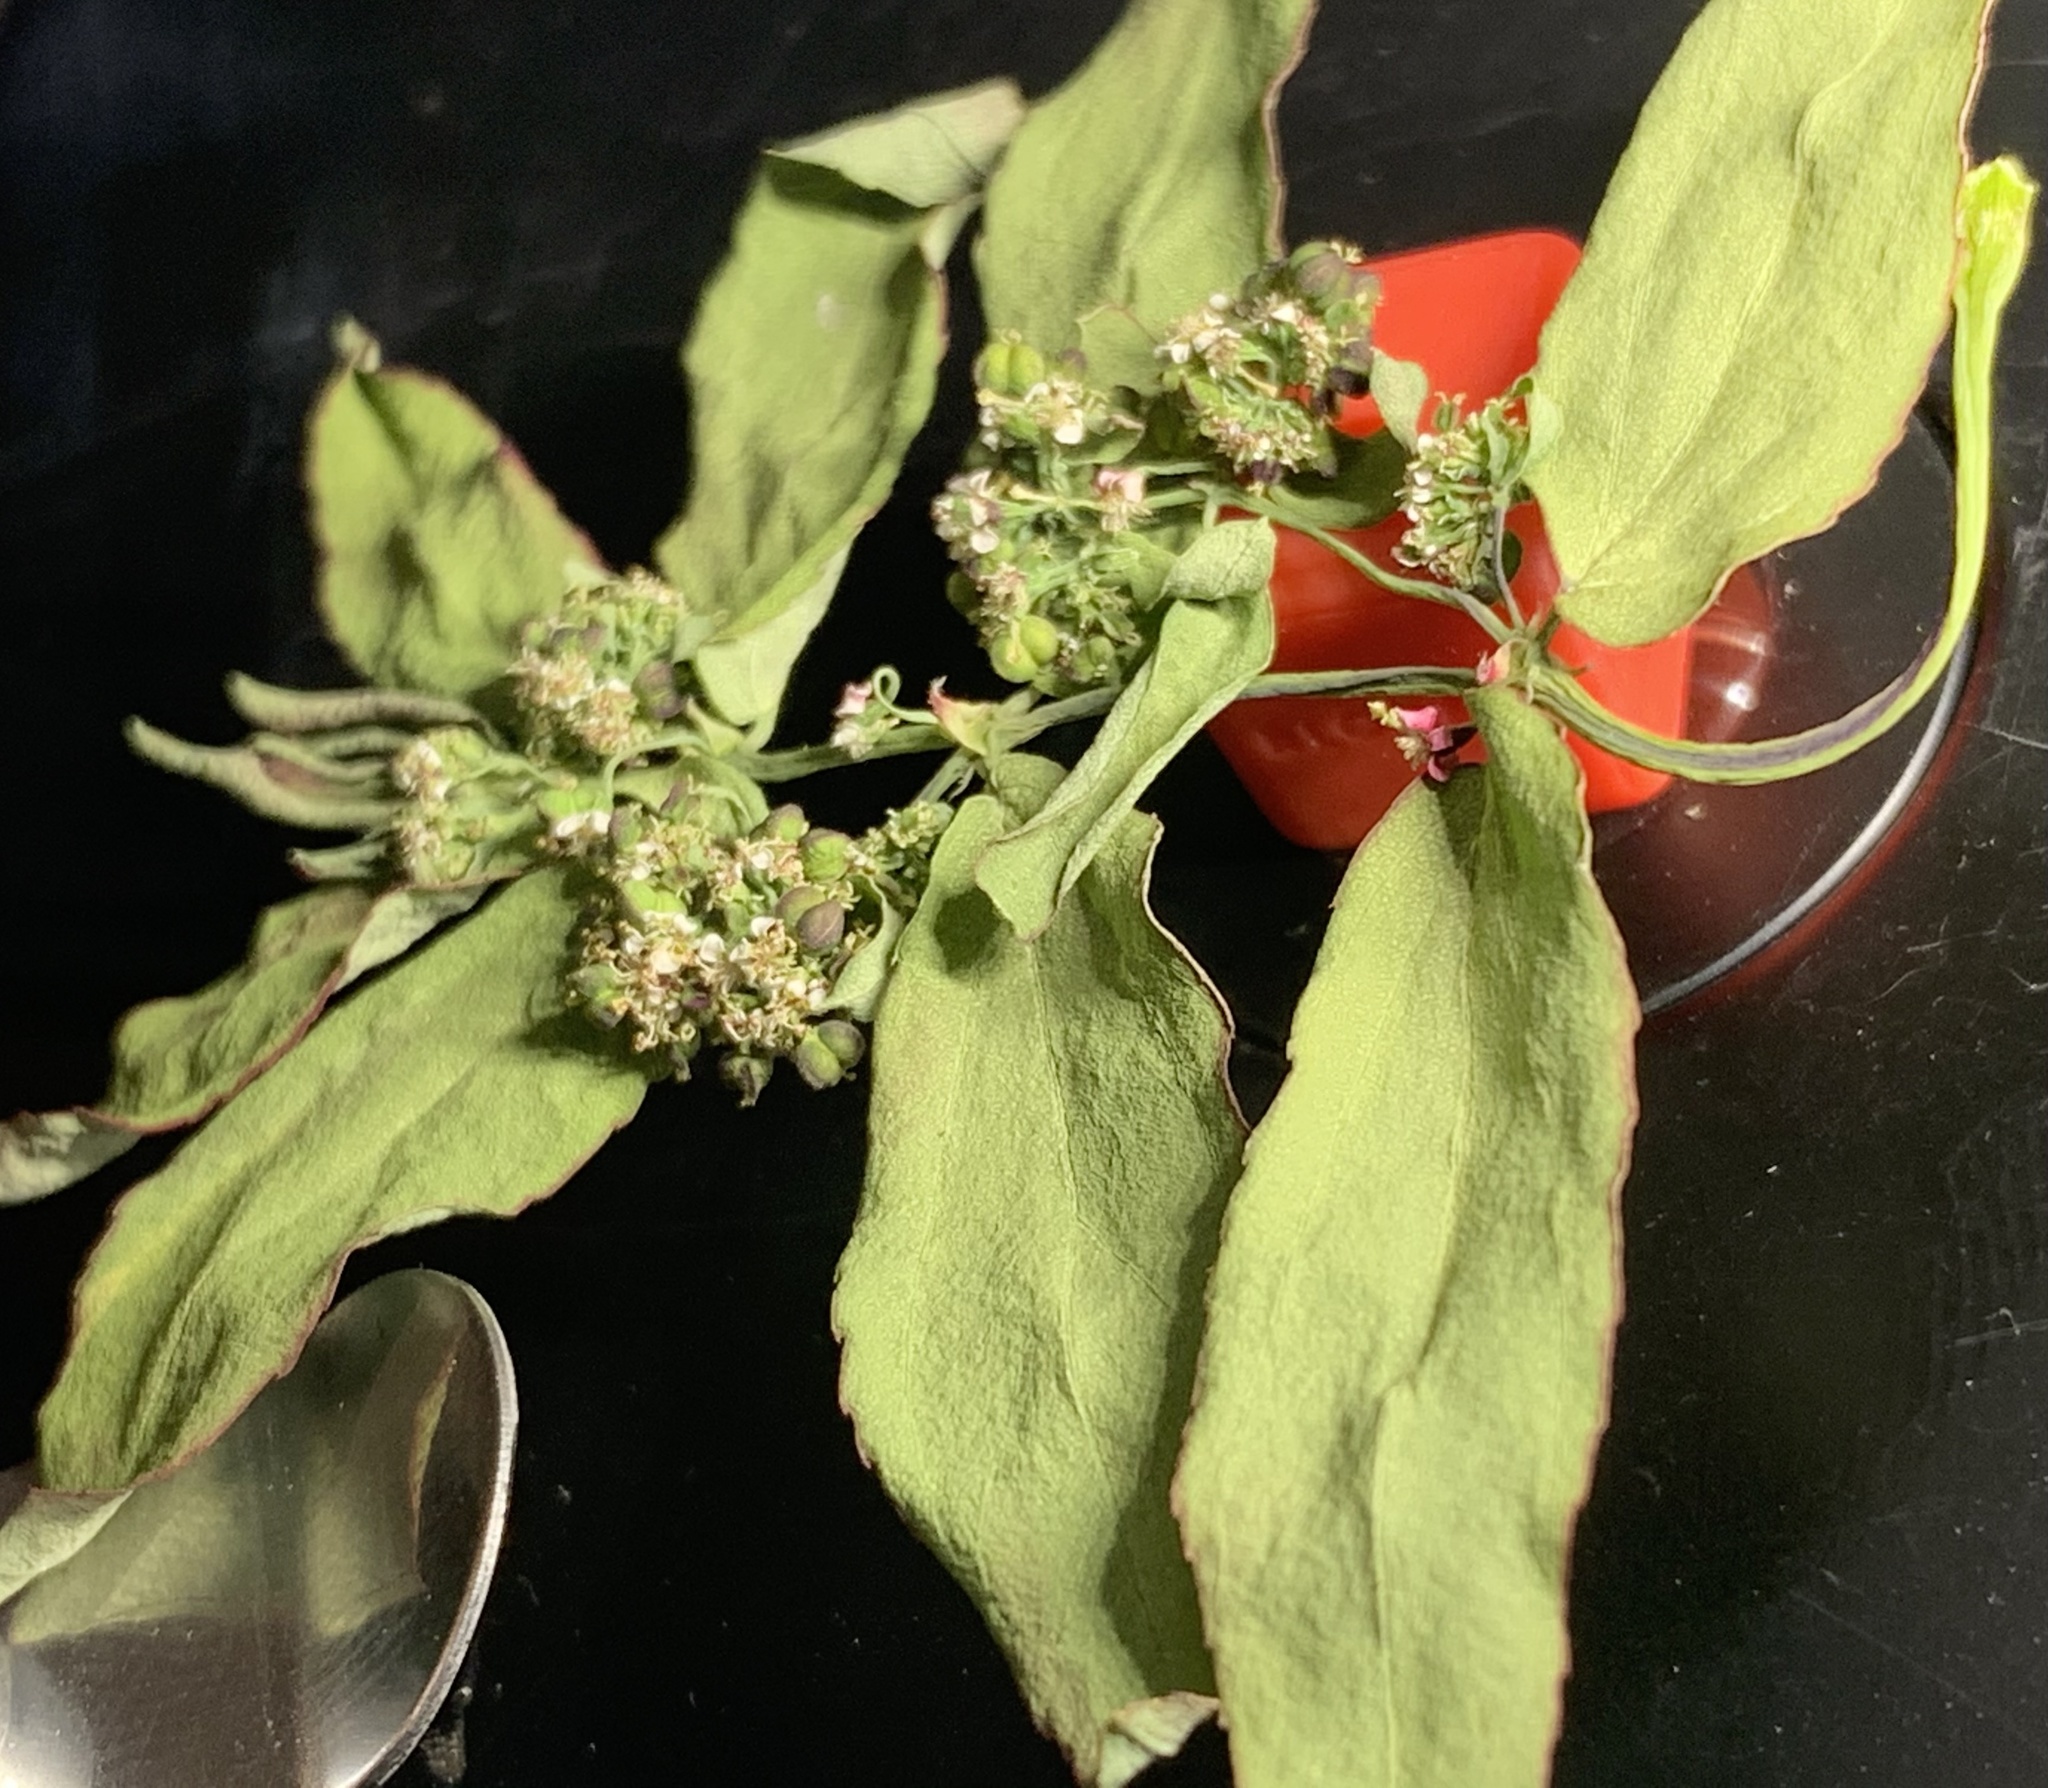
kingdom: Plantae
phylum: Tracheophyta
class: Magnoliopsida
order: Malpighiales
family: Euphorbiaceae
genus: Euphorbia
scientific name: Euphorbia hypericifolia
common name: Graceful sandmat
